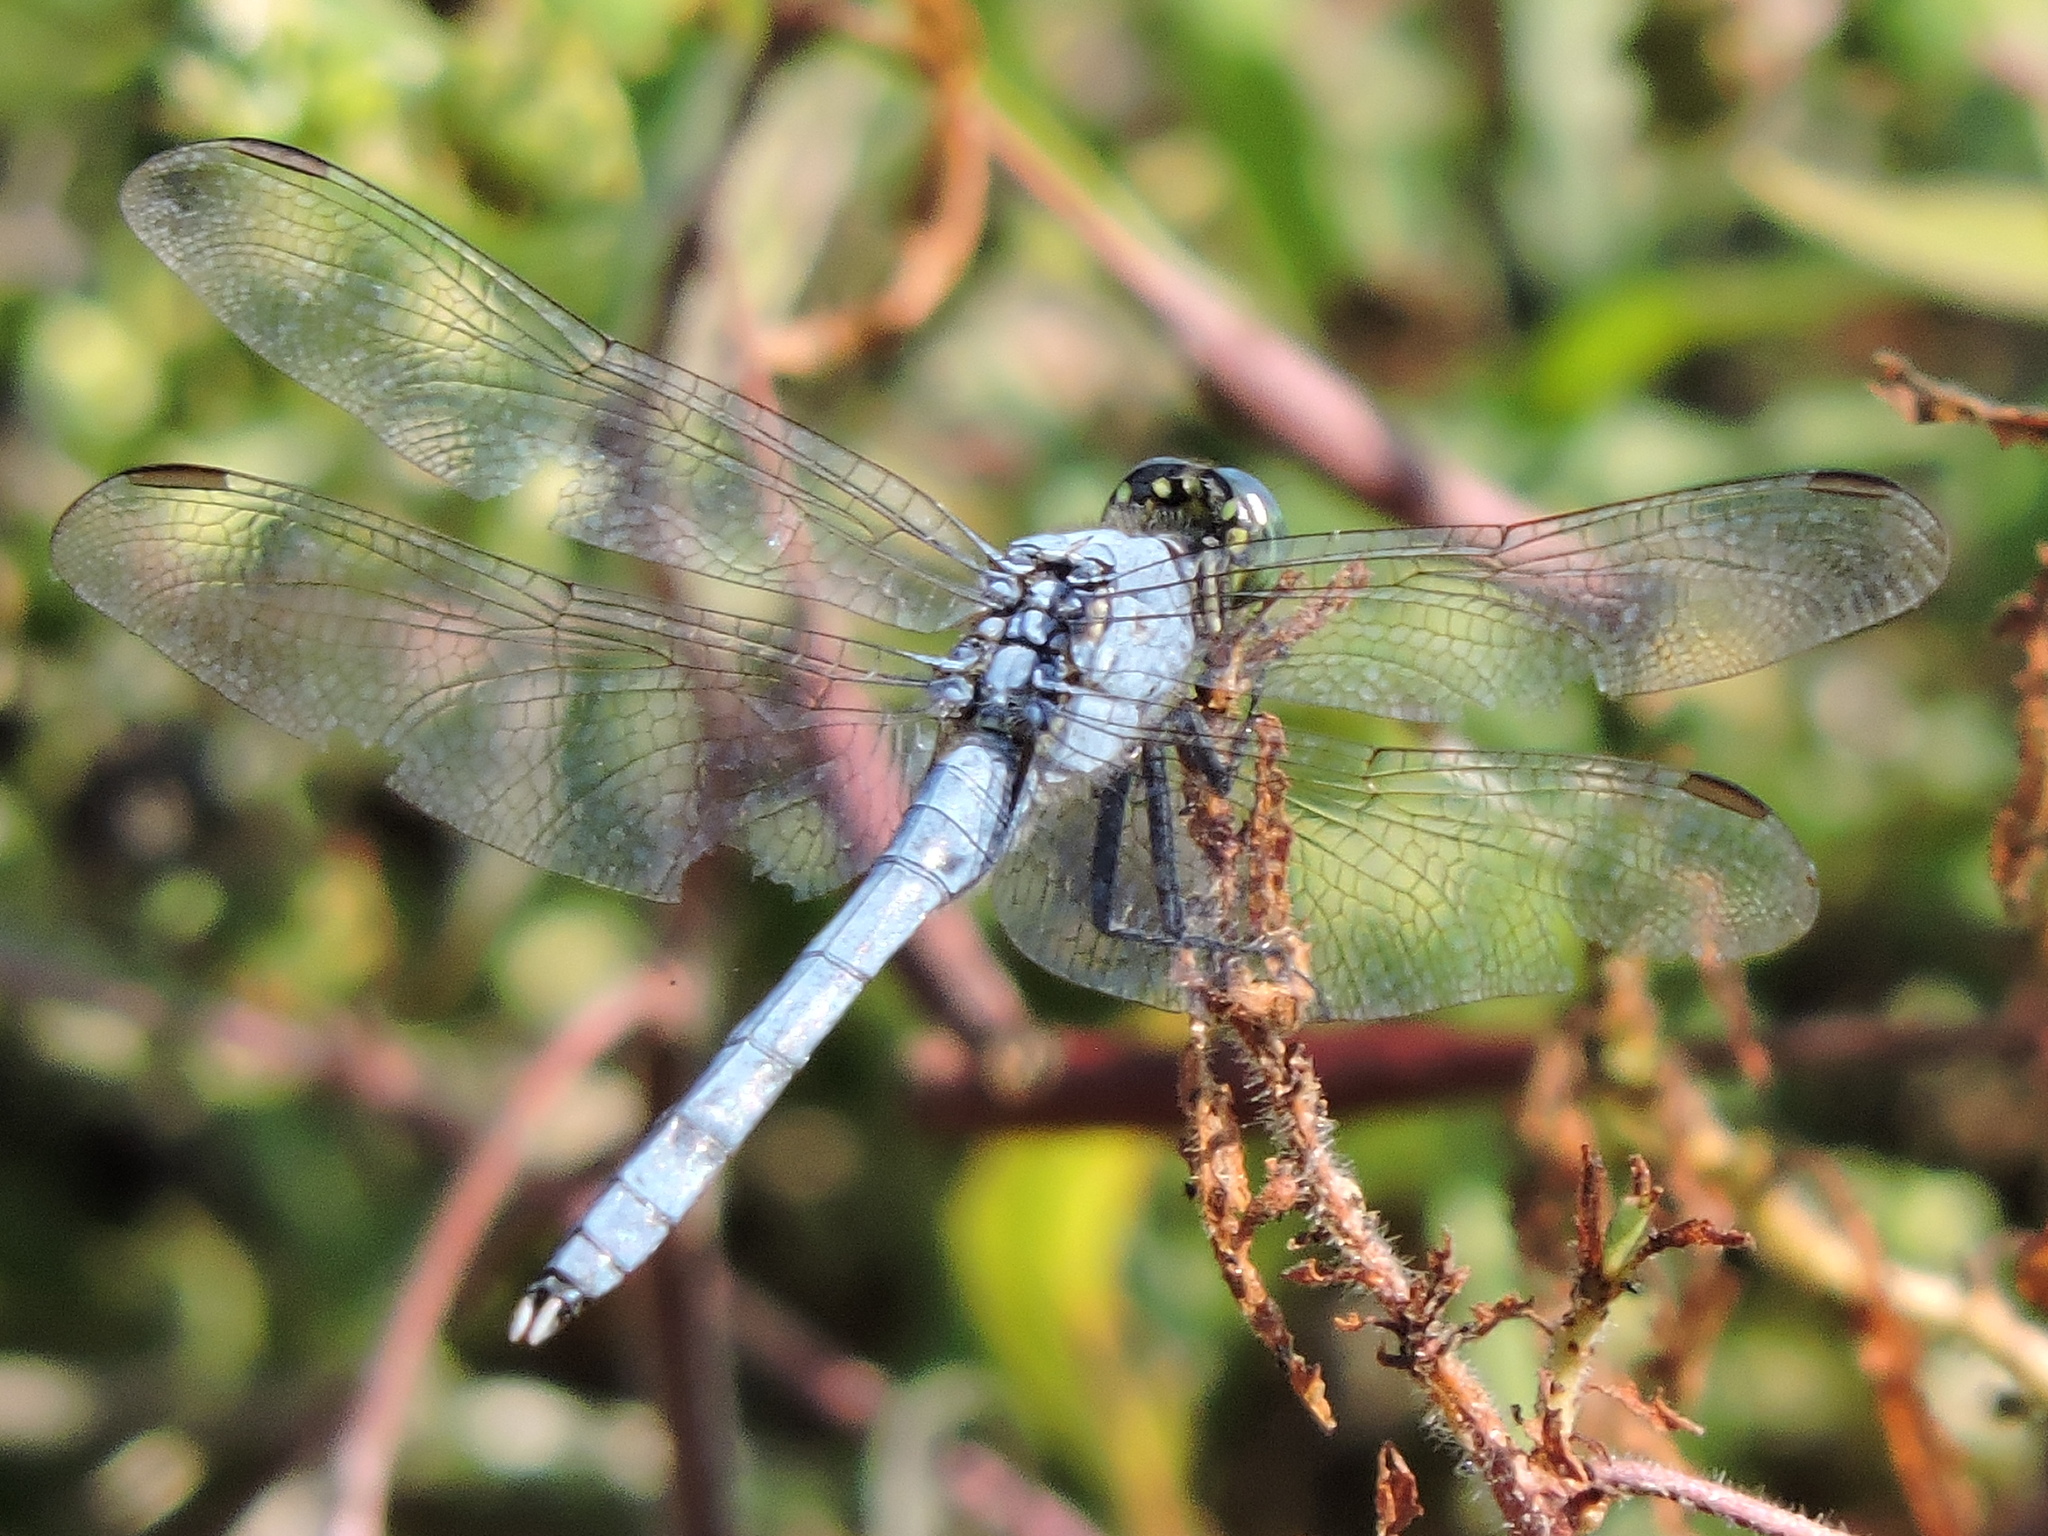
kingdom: Animalia
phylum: Arthropoda
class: Insecta
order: Odonata
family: Libellulidae
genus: Erythemis
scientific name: Erythemis simplicicollis
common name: Eastern pondhawk
